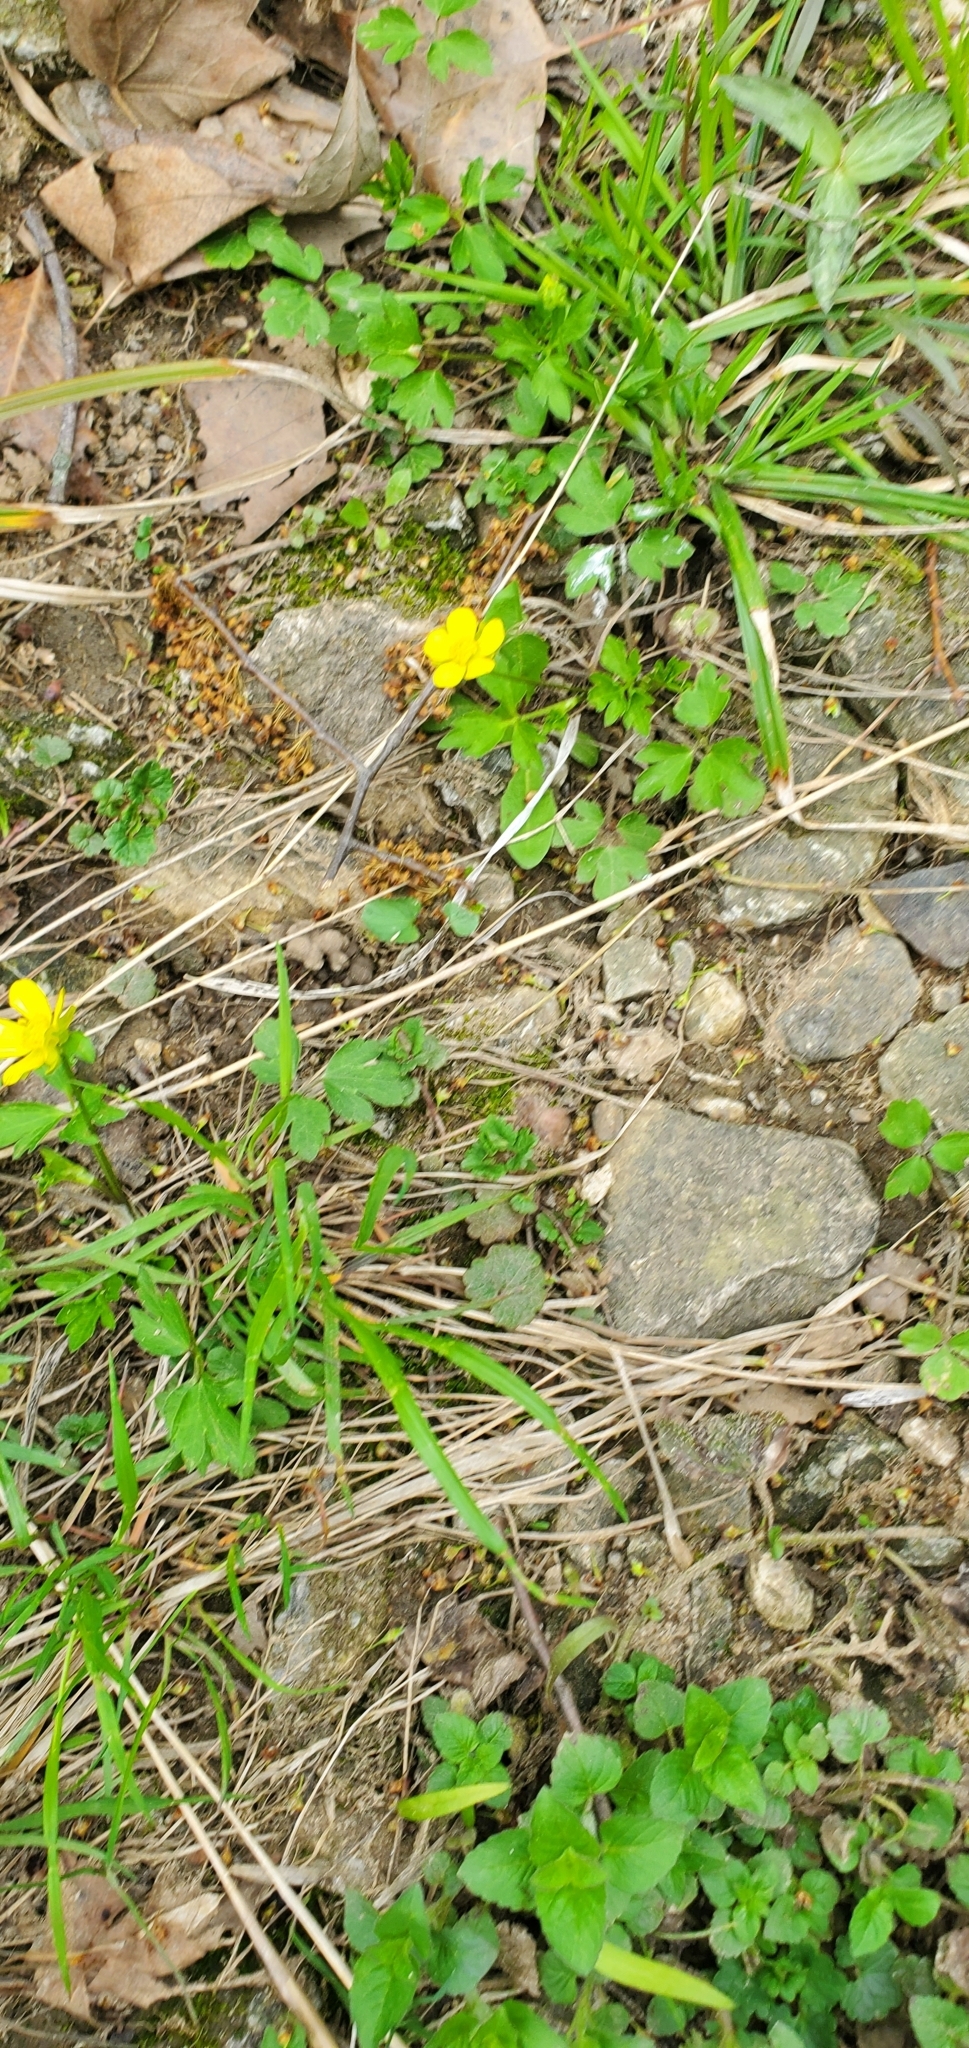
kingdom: Plantae
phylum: Tracheophyta
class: Magnoliopsida
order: Ranunculales
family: Ranunculaceae
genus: Ranunculus
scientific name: Ranunculus hispidus
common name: Bristly buttercup
